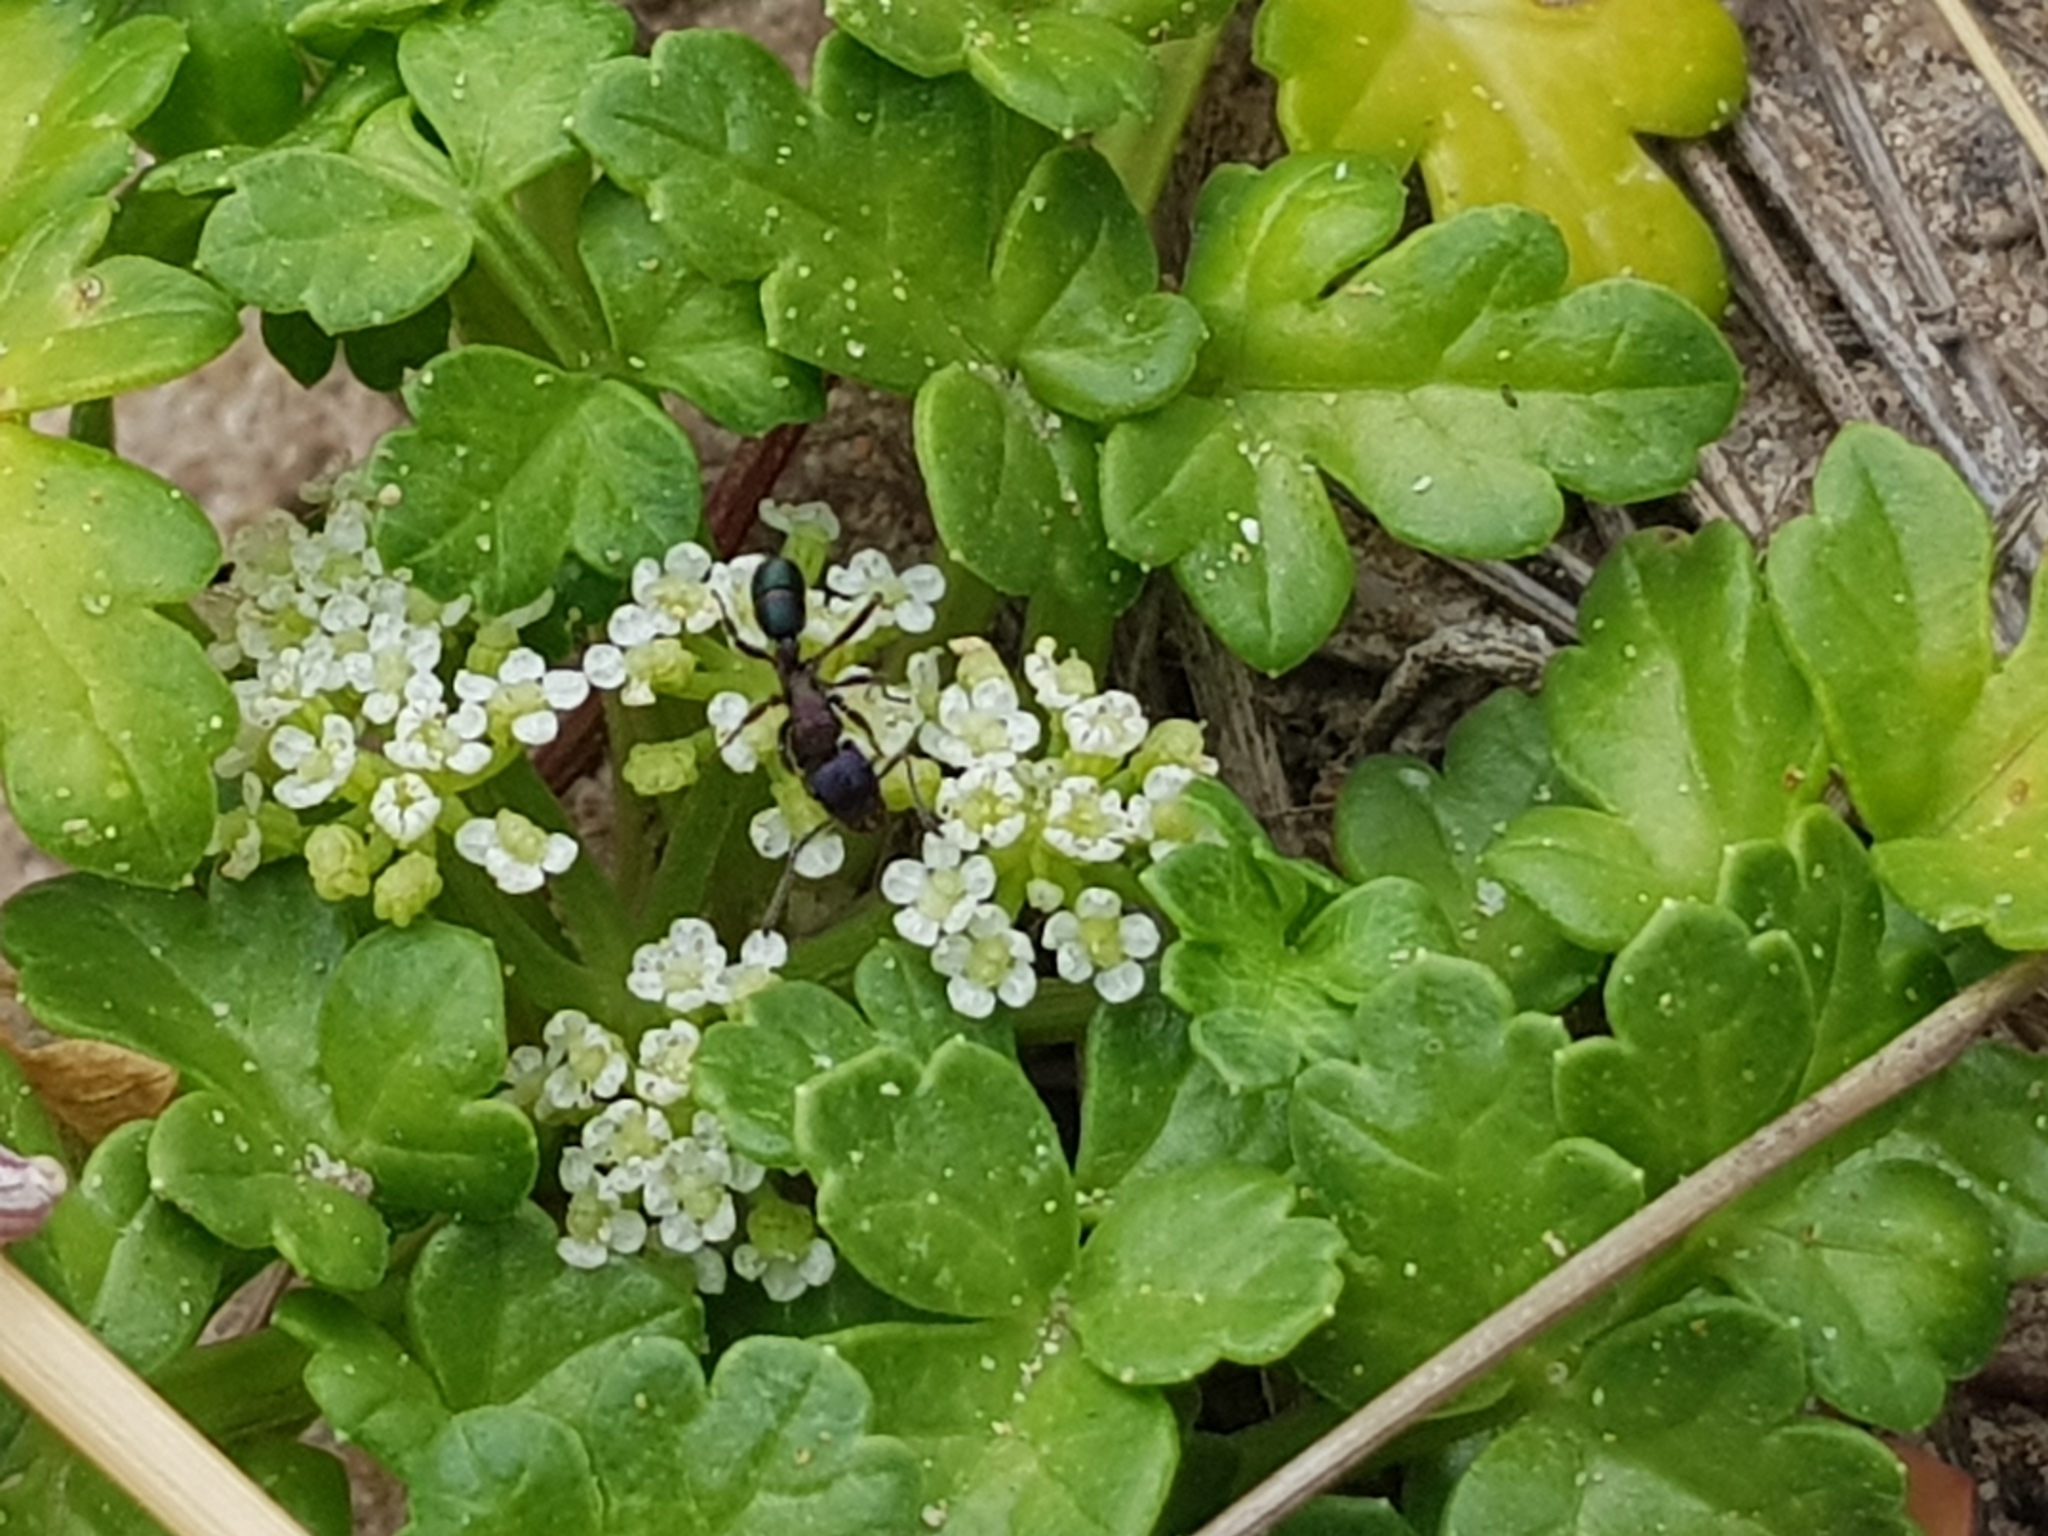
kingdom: Plantae
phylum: Tracheophyta
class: Magnoliopsida
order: Apiales
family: Apiaceae
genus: Apium
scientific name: Apium prostratum
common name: Prostrate marshwort
